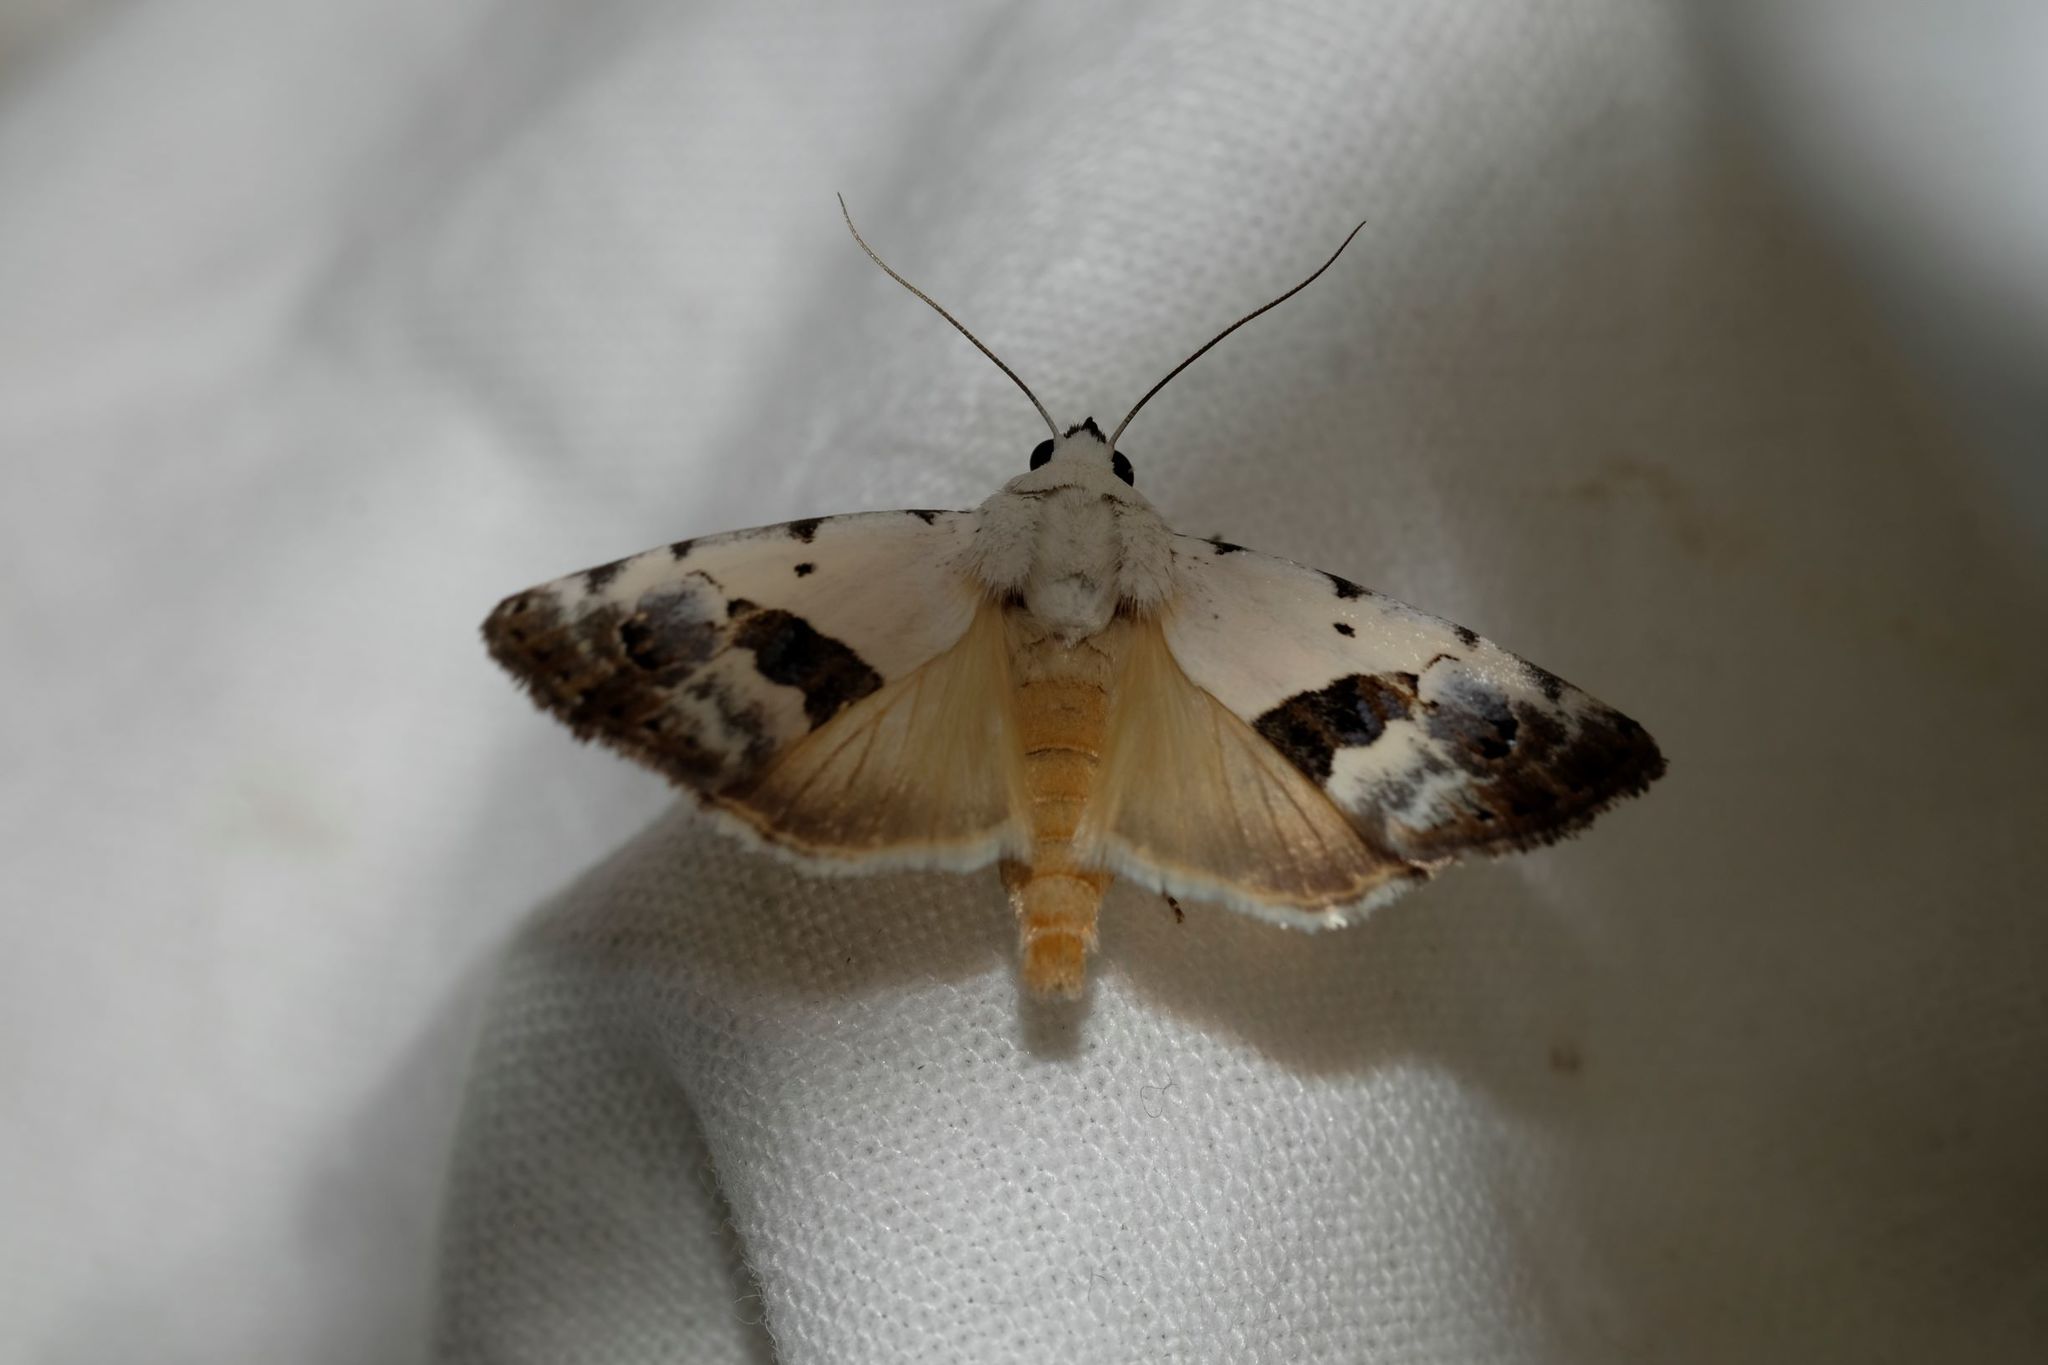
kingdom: Animalia
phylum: Arthropoda
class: Insecta
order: Lepidoptera
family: Nolidae
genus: Armactica
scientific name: Armactica conchidia
